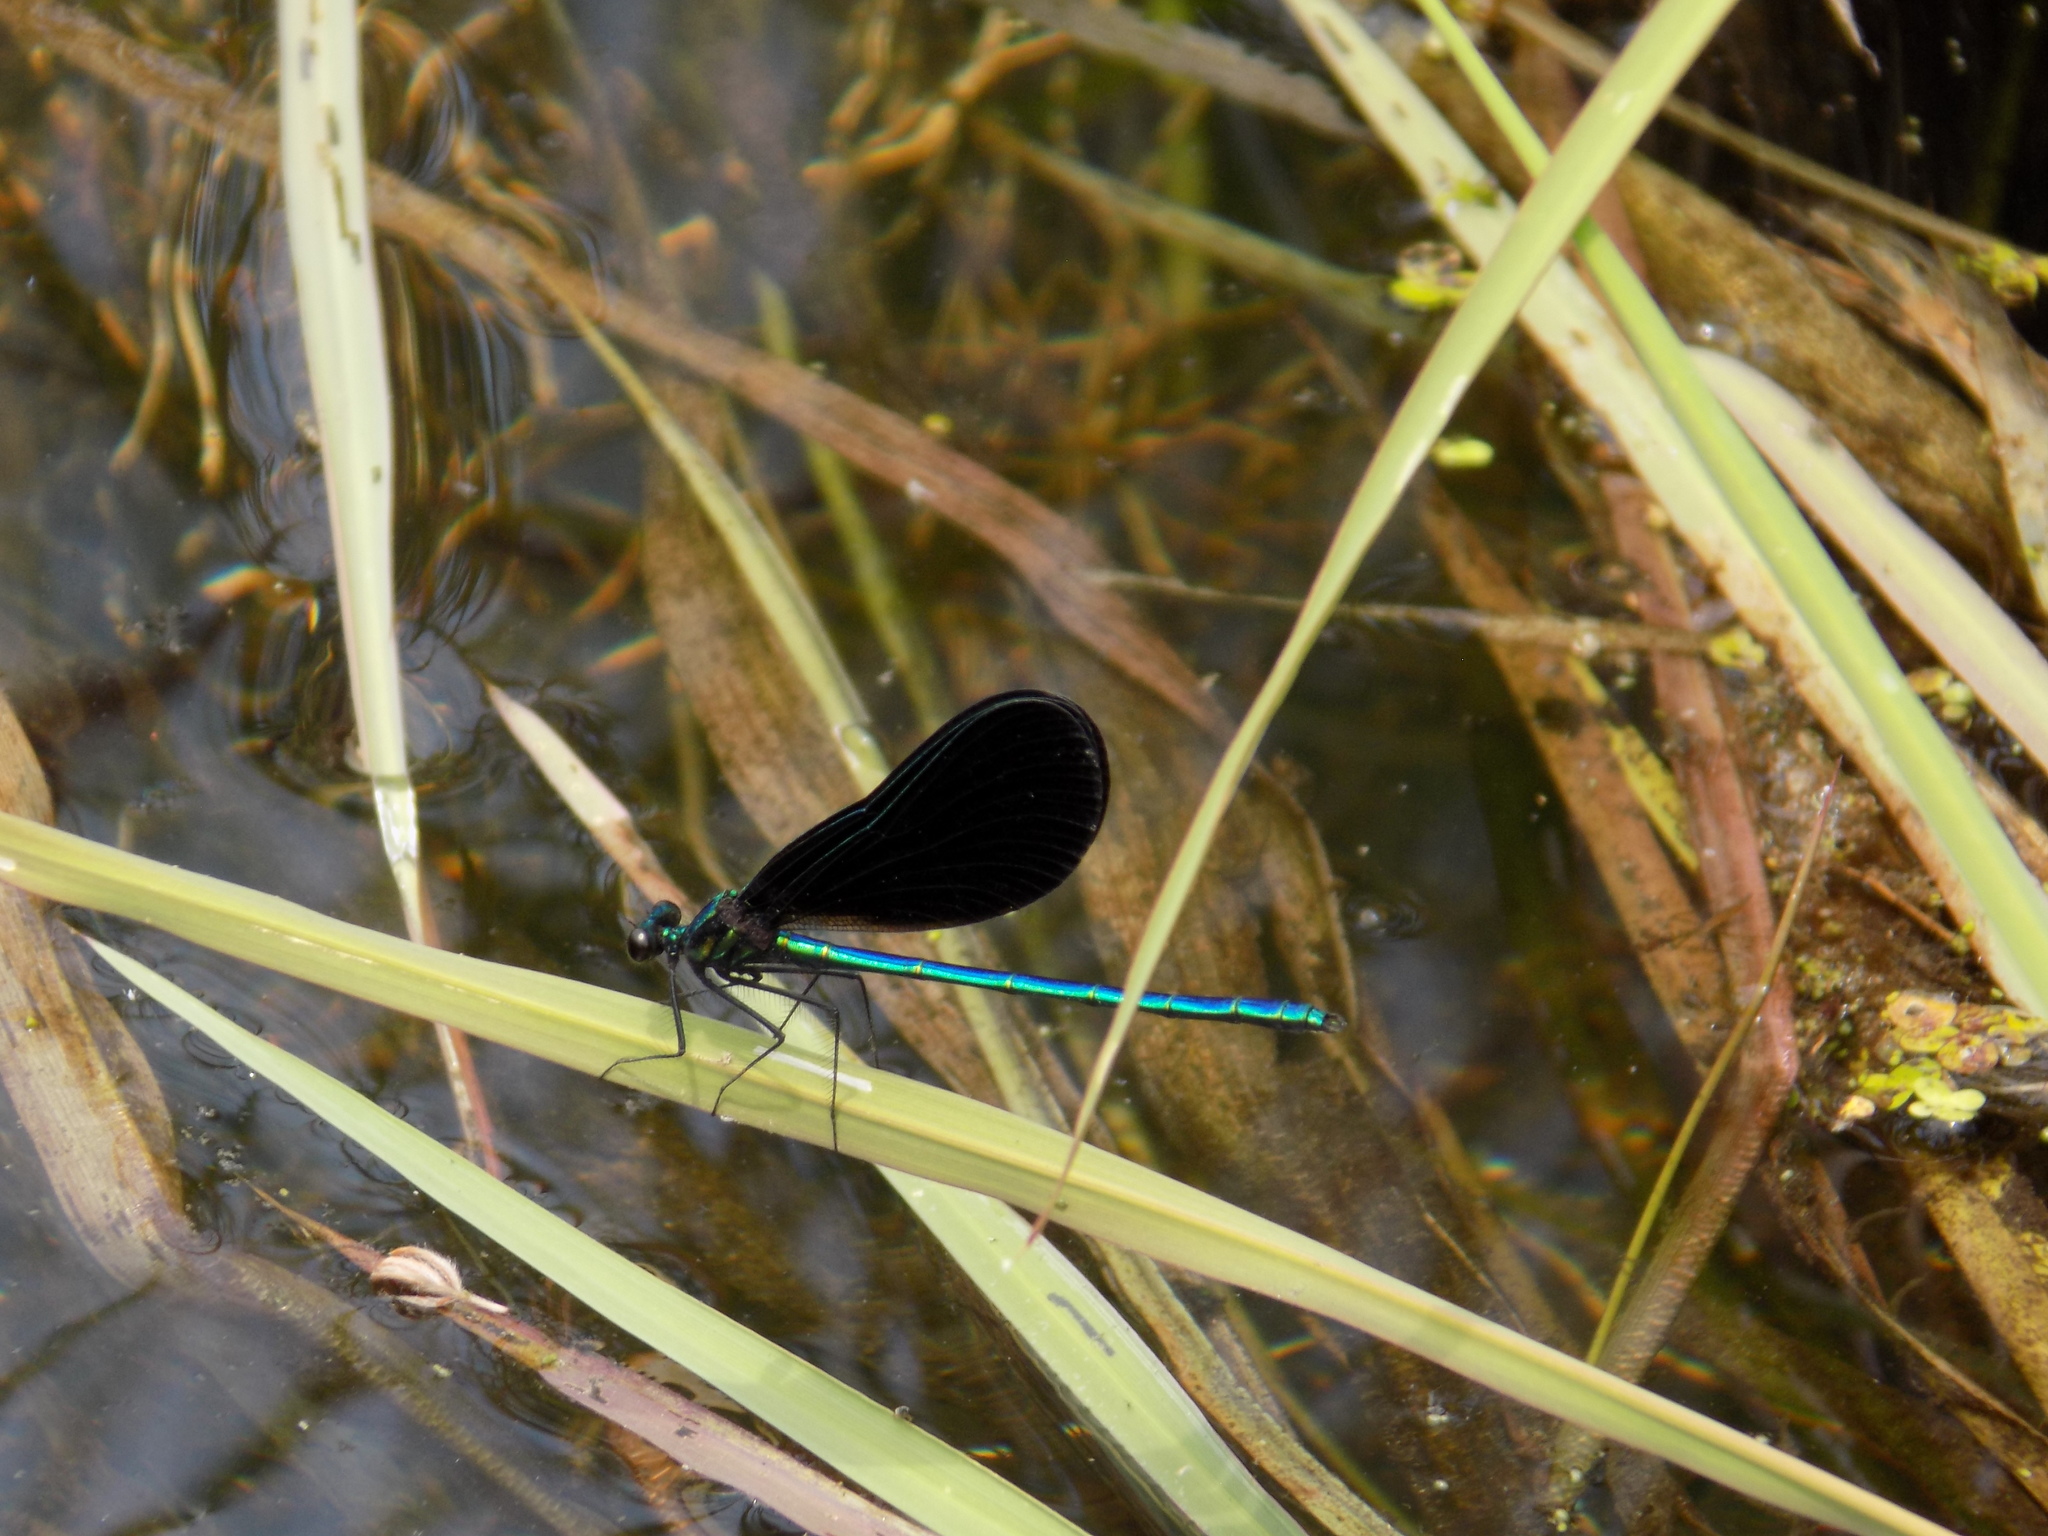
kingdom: Animalia
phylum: Arthropoda
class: Insecta
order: Odonata
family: Calopterygidae
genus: Calopteryx
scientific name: Calopteryx maculata
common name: Ebony jewelwing
